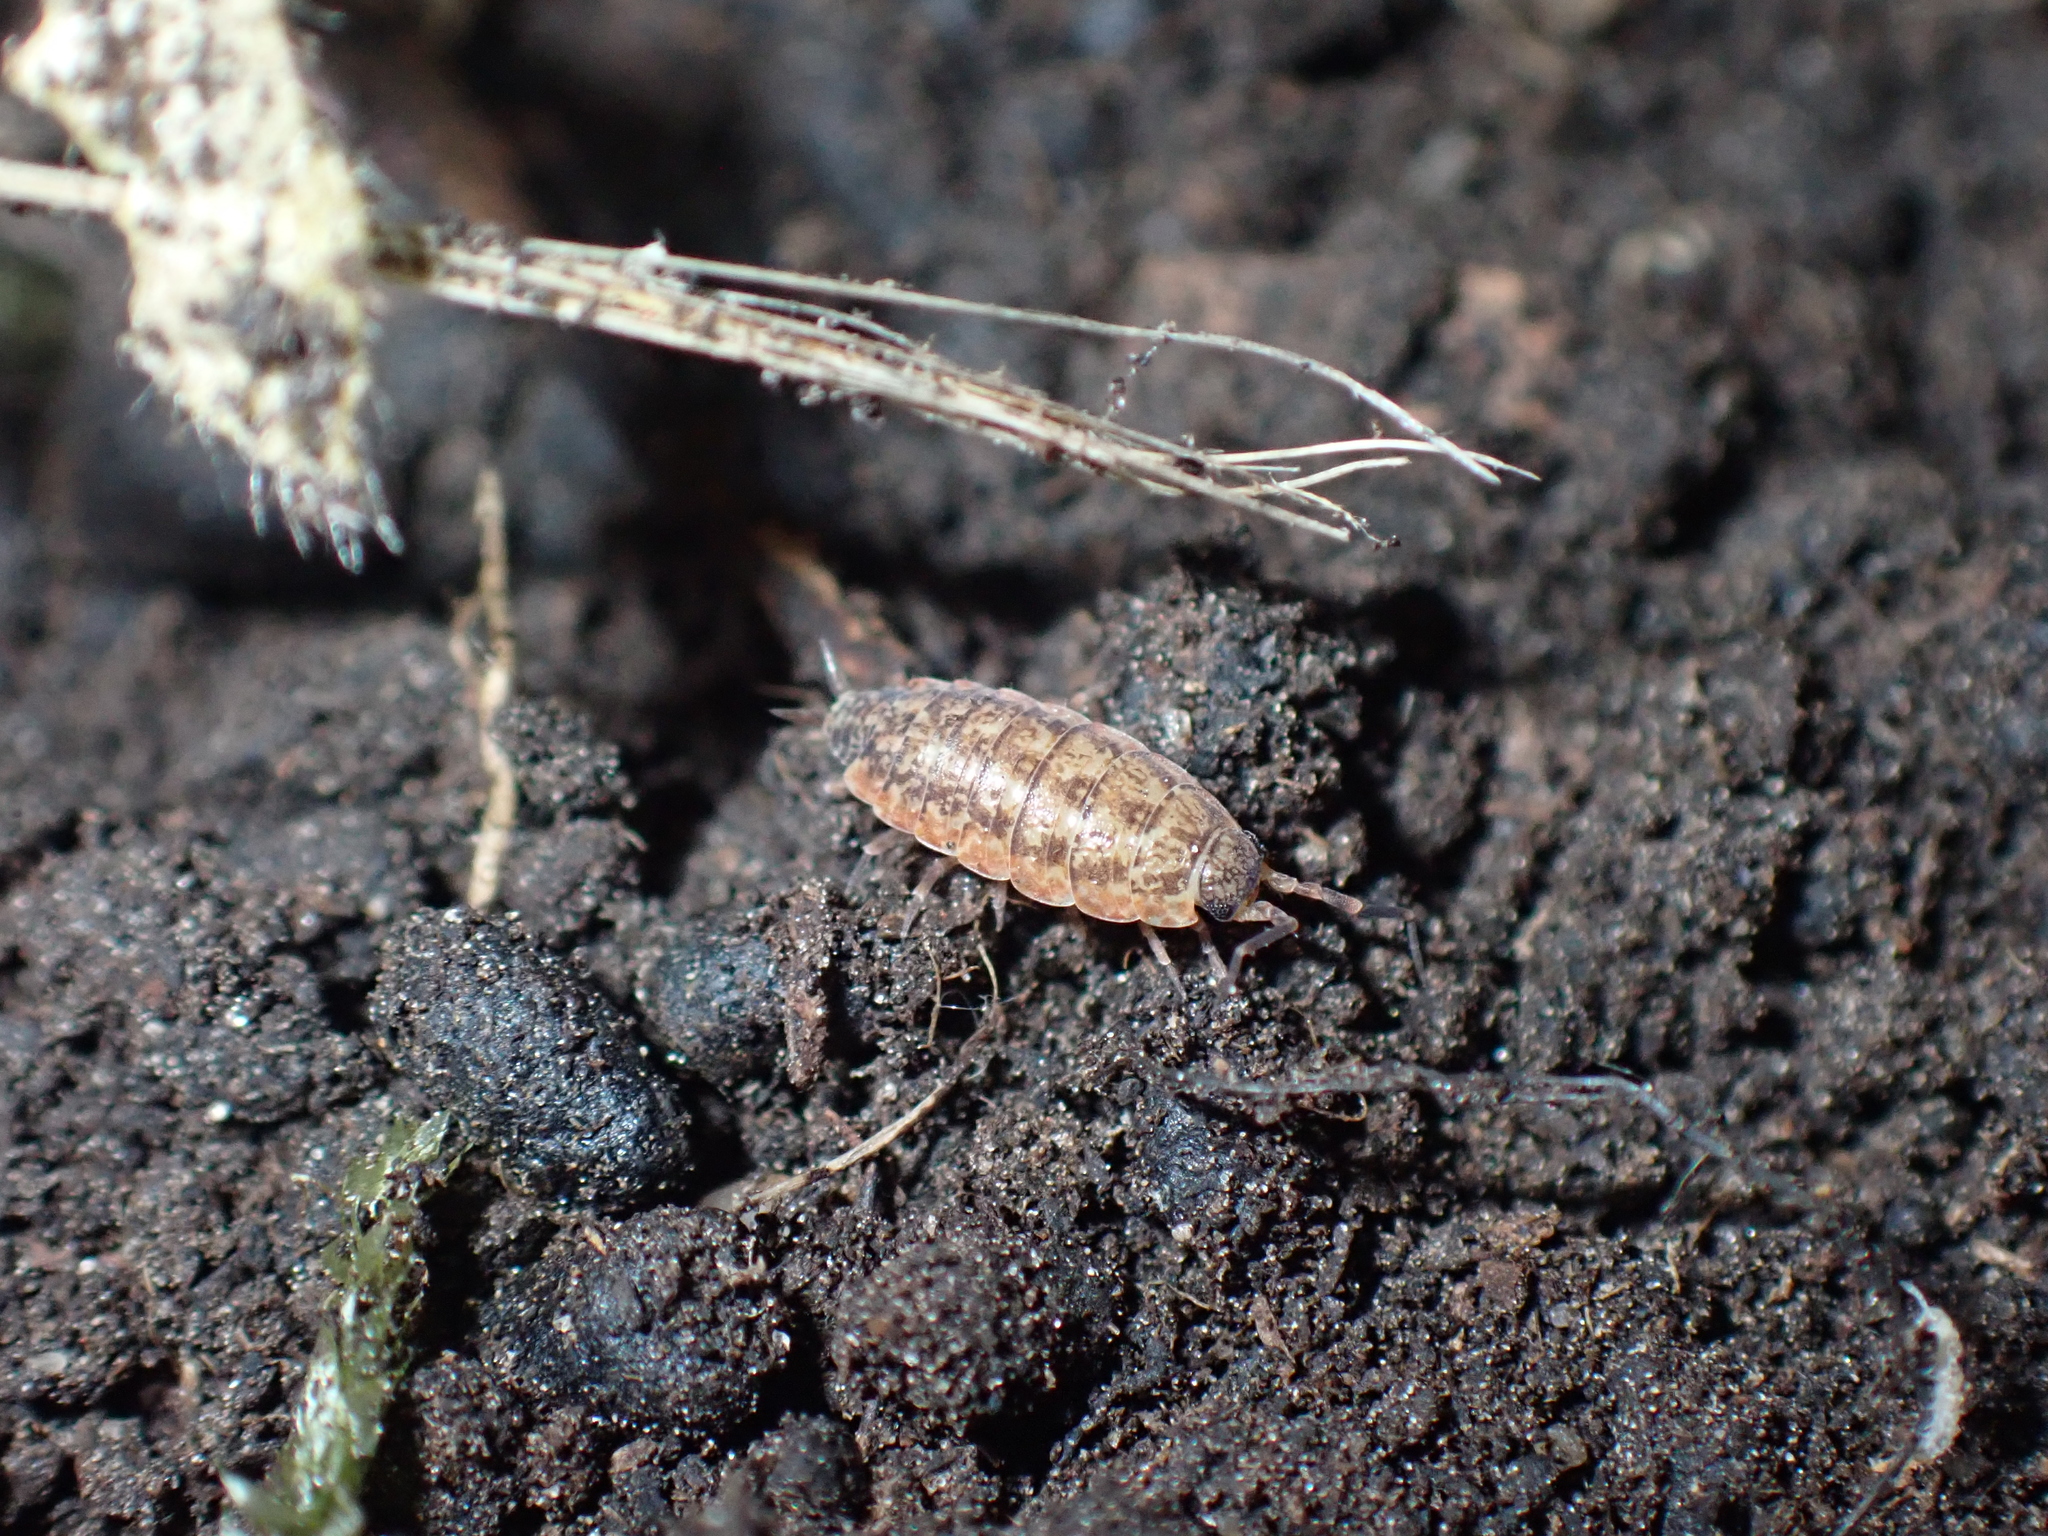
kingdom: Animalia
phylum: Arthropoda
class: Malacostraca
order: Isopoda
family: Porcellionidae
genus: Porcellionides
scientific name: Porcellionides cingendus
